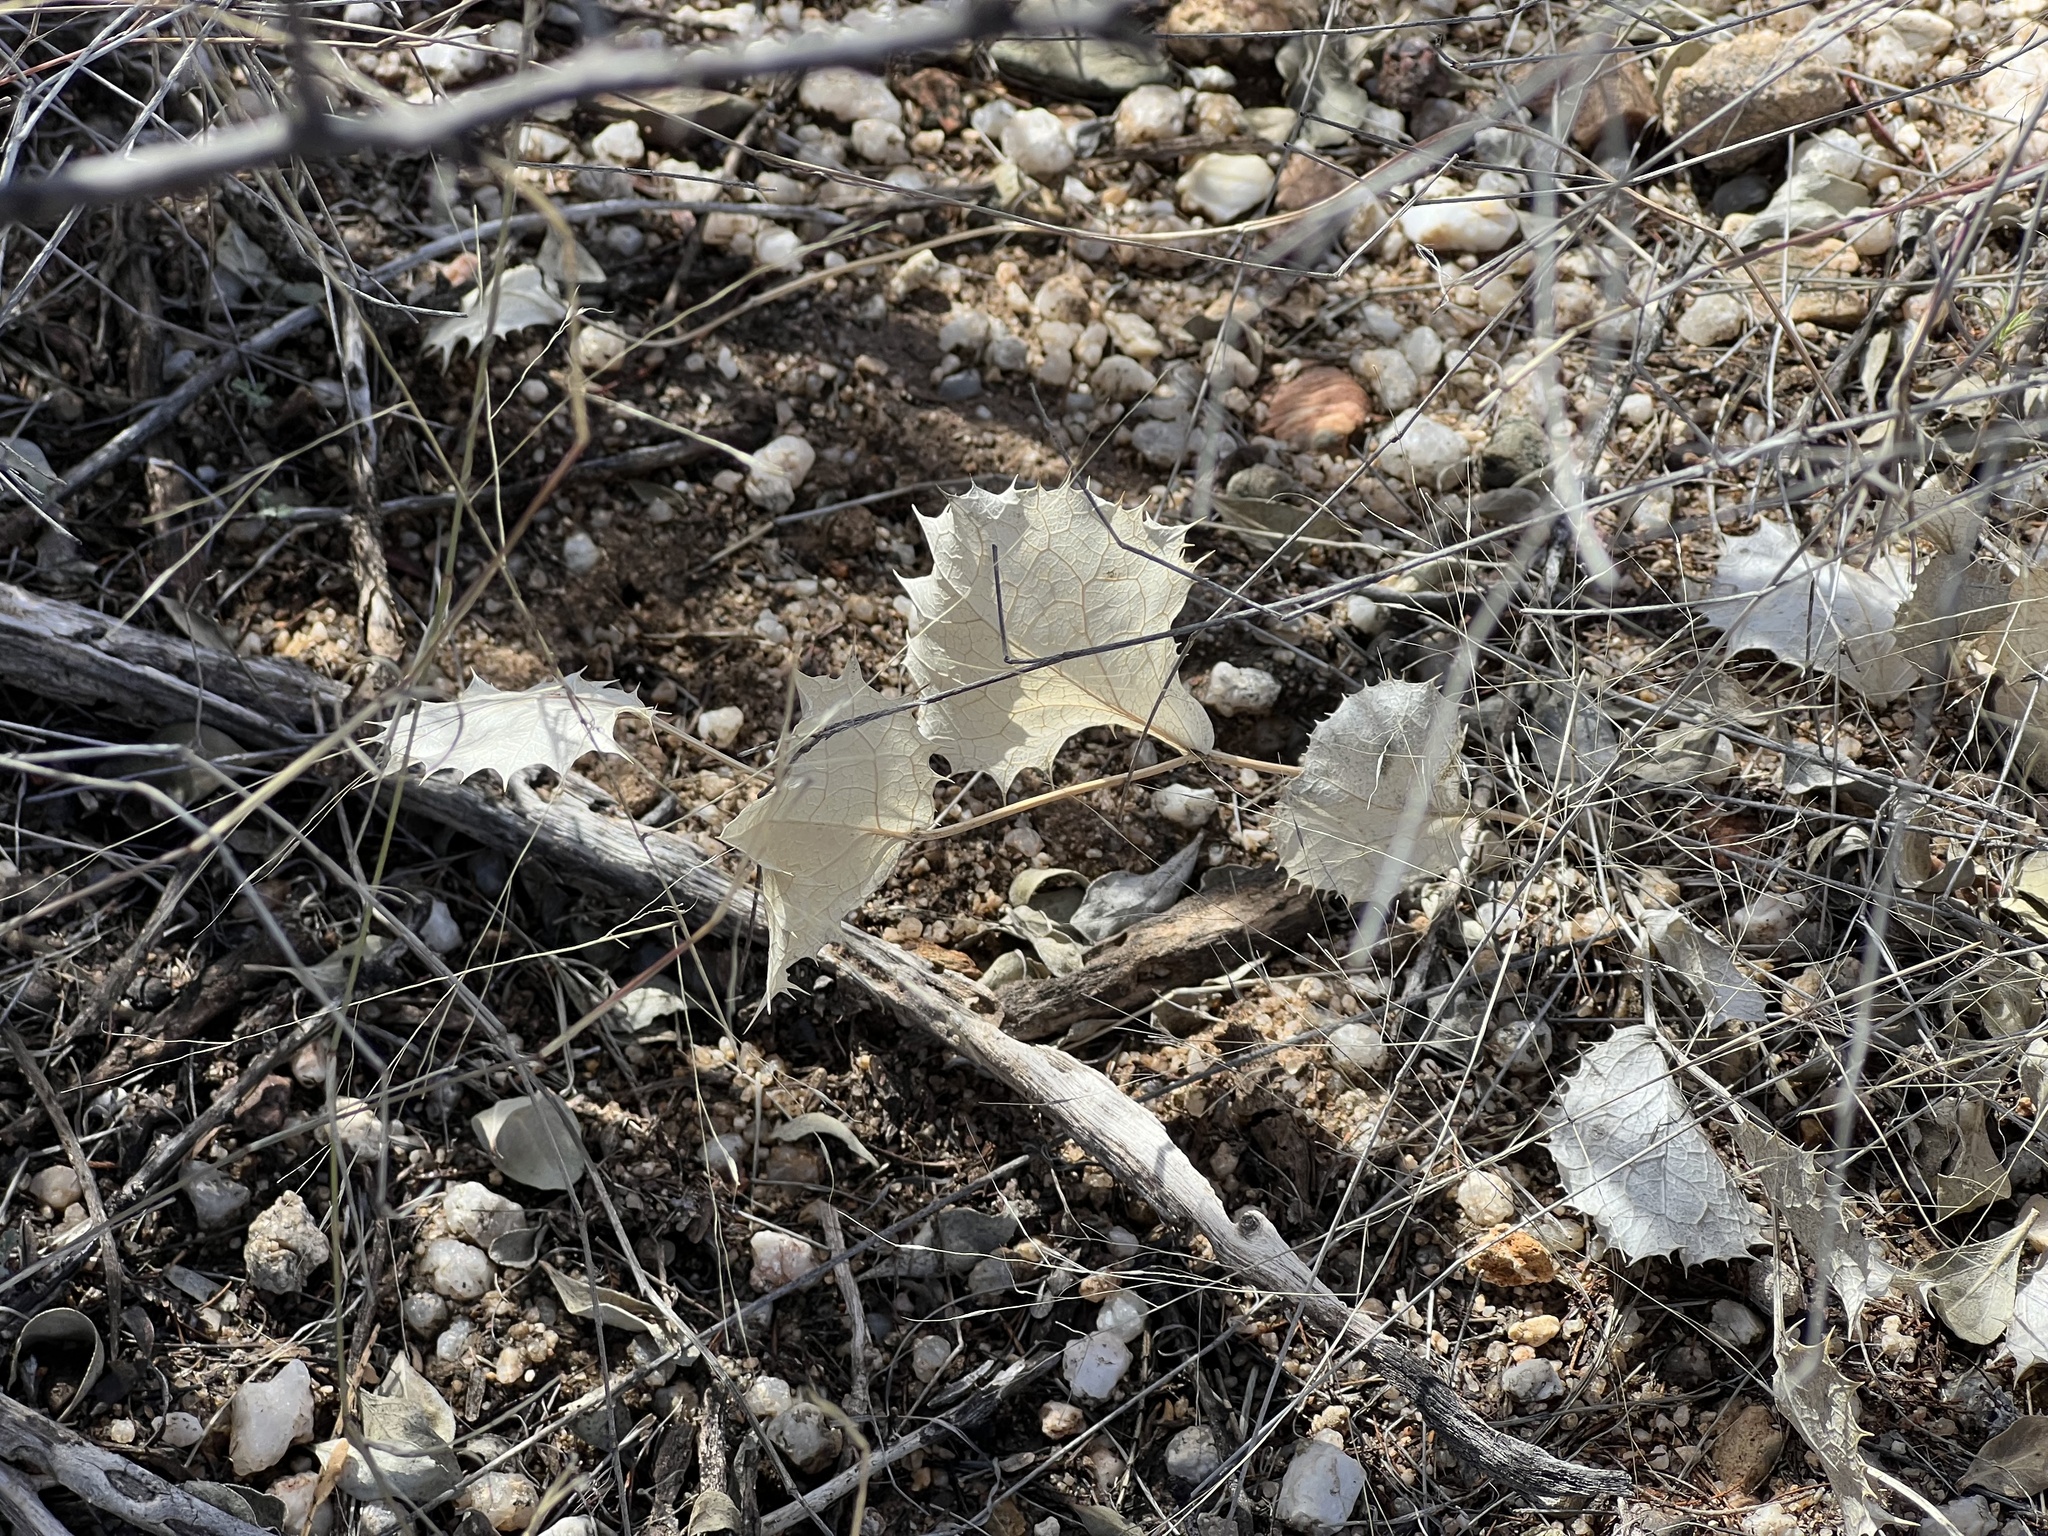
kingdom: Plantae
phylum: Tracheophyta
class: Magnoliopsida
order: Asterales
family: Asteraceae
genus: Acourtia
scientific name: Acourtia nana
